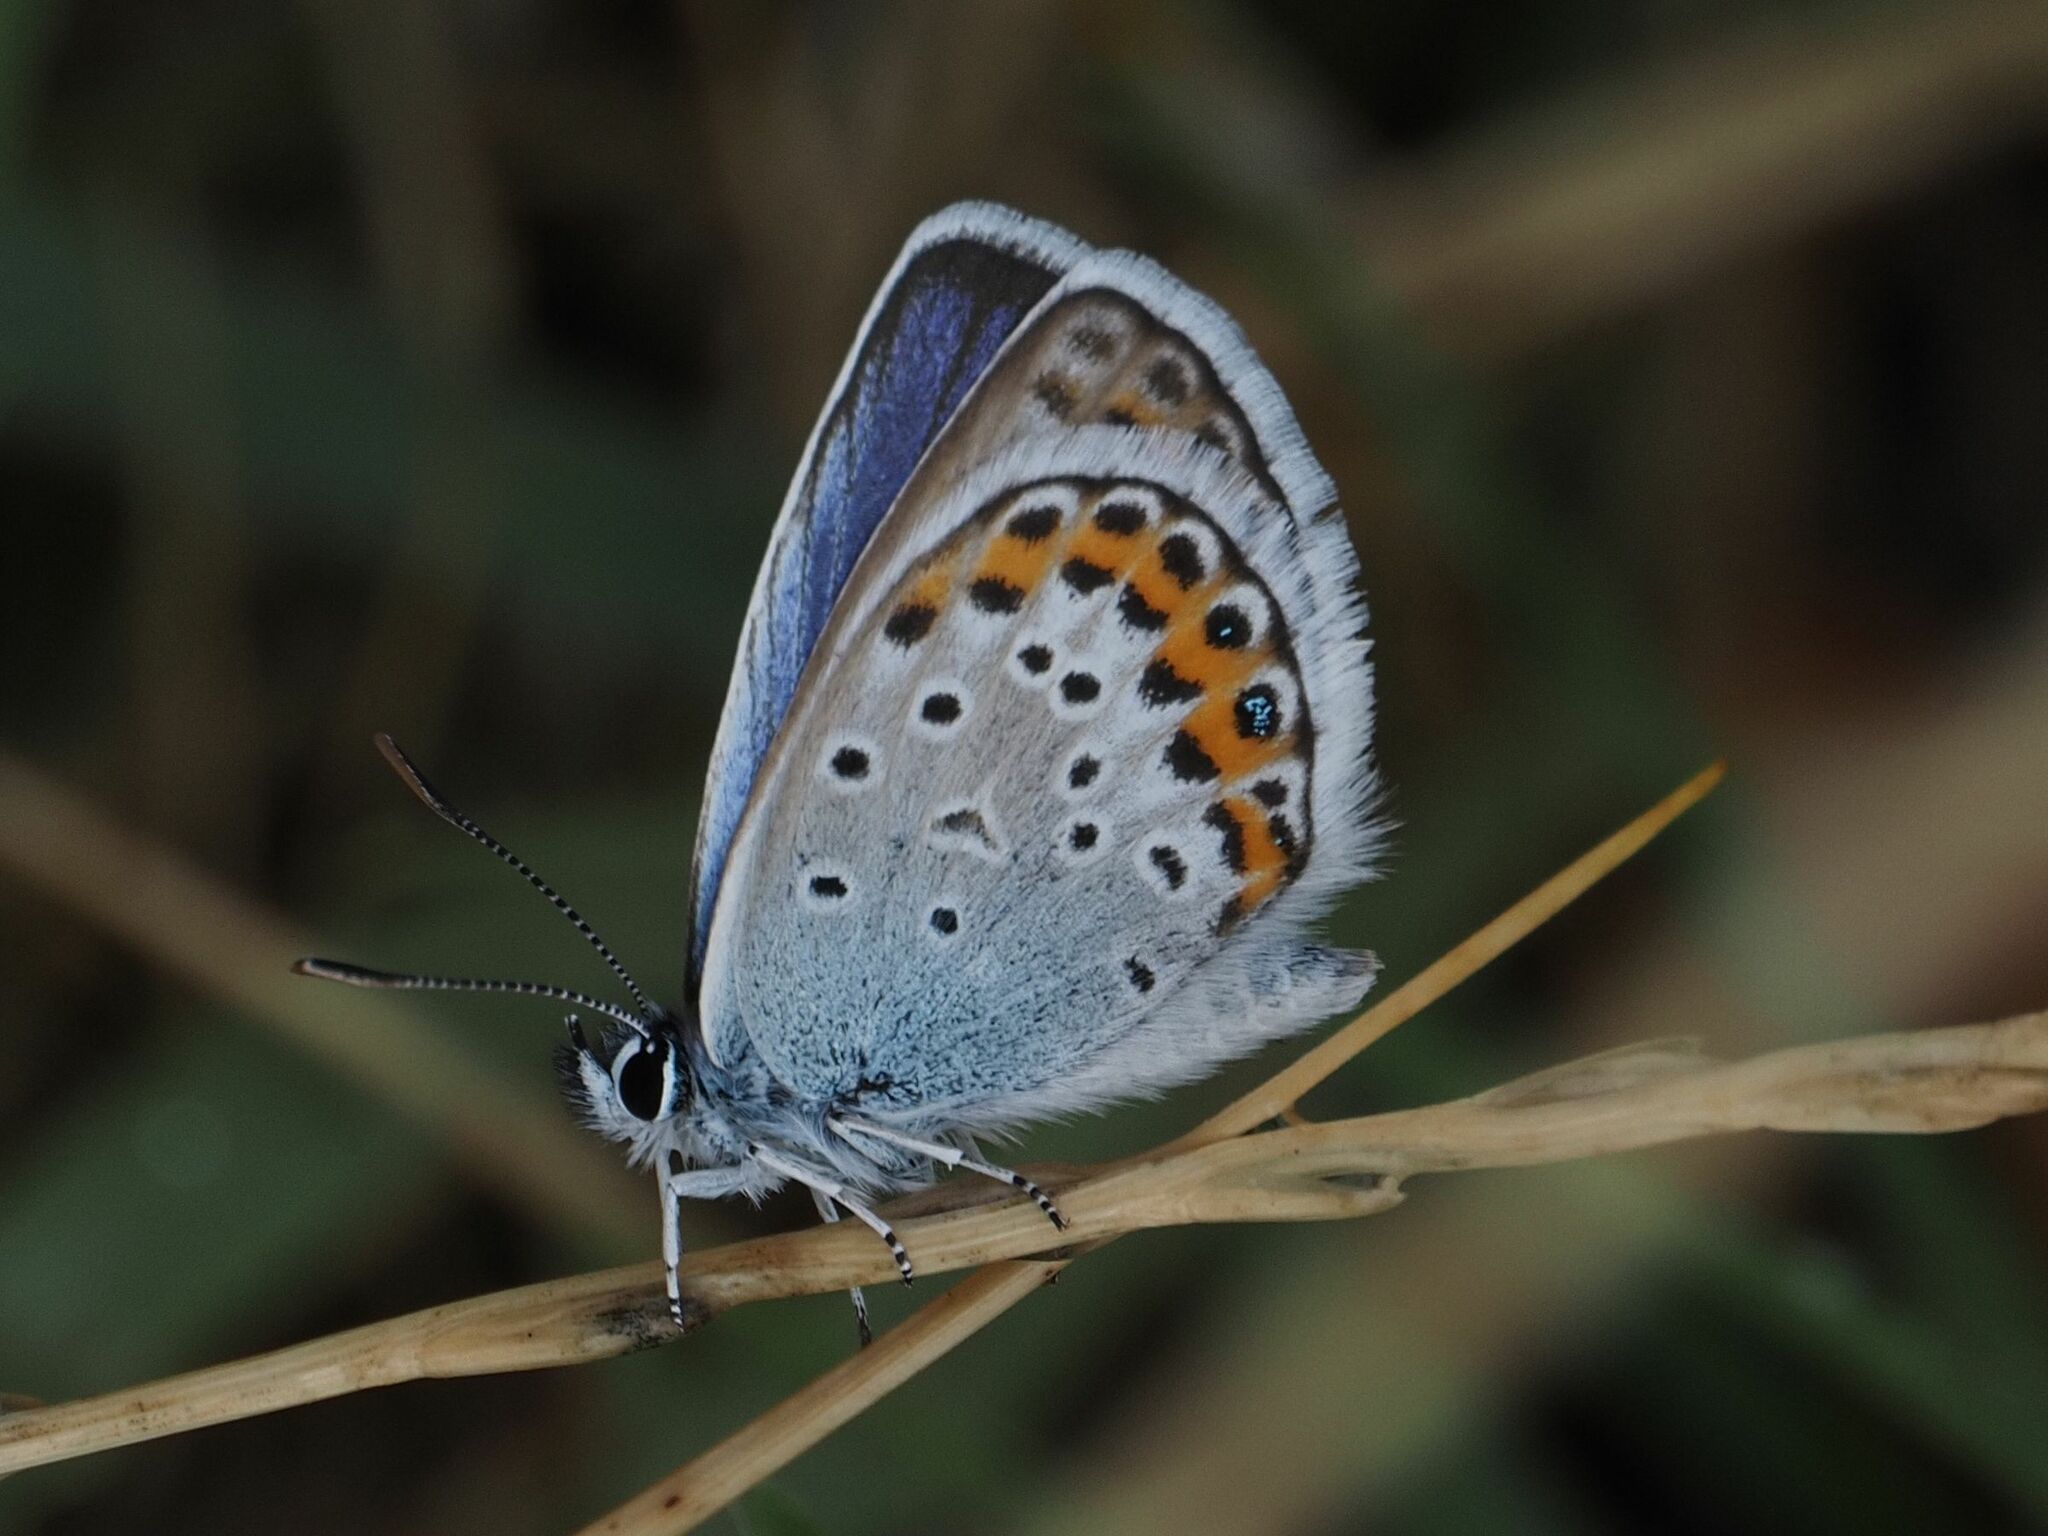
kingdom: Animalia
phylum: Arthropoda
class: Insecta
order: Lepidoptera
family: Lycaenidae
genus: Plebejus
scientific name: Plebejus argus
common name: Silver-studded blue
